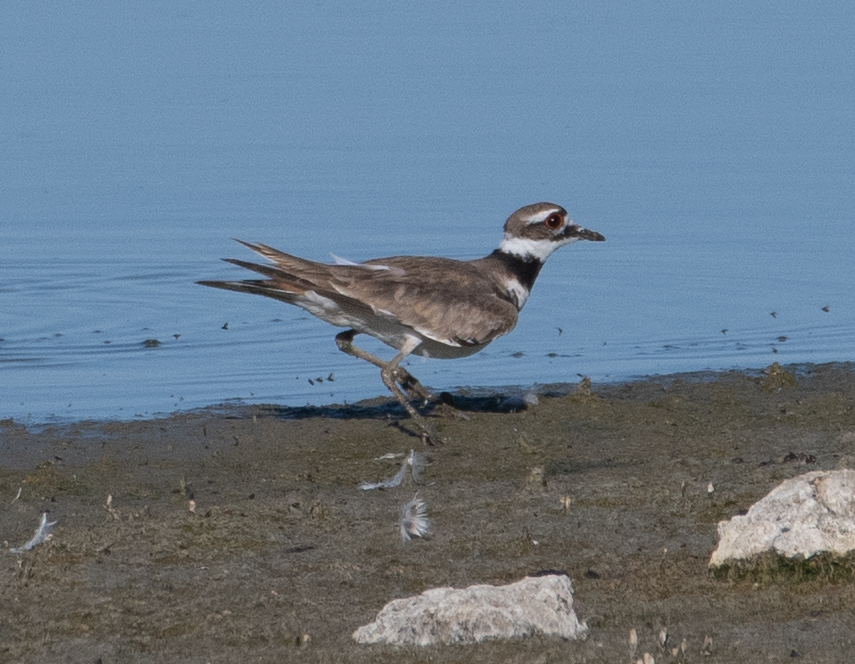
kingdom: Animalia
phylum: Chordata
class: Aves
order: Charadriiformes
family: Charadriidae
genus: Charadrius
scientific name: Charadrius vociferus
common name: Killdeer
